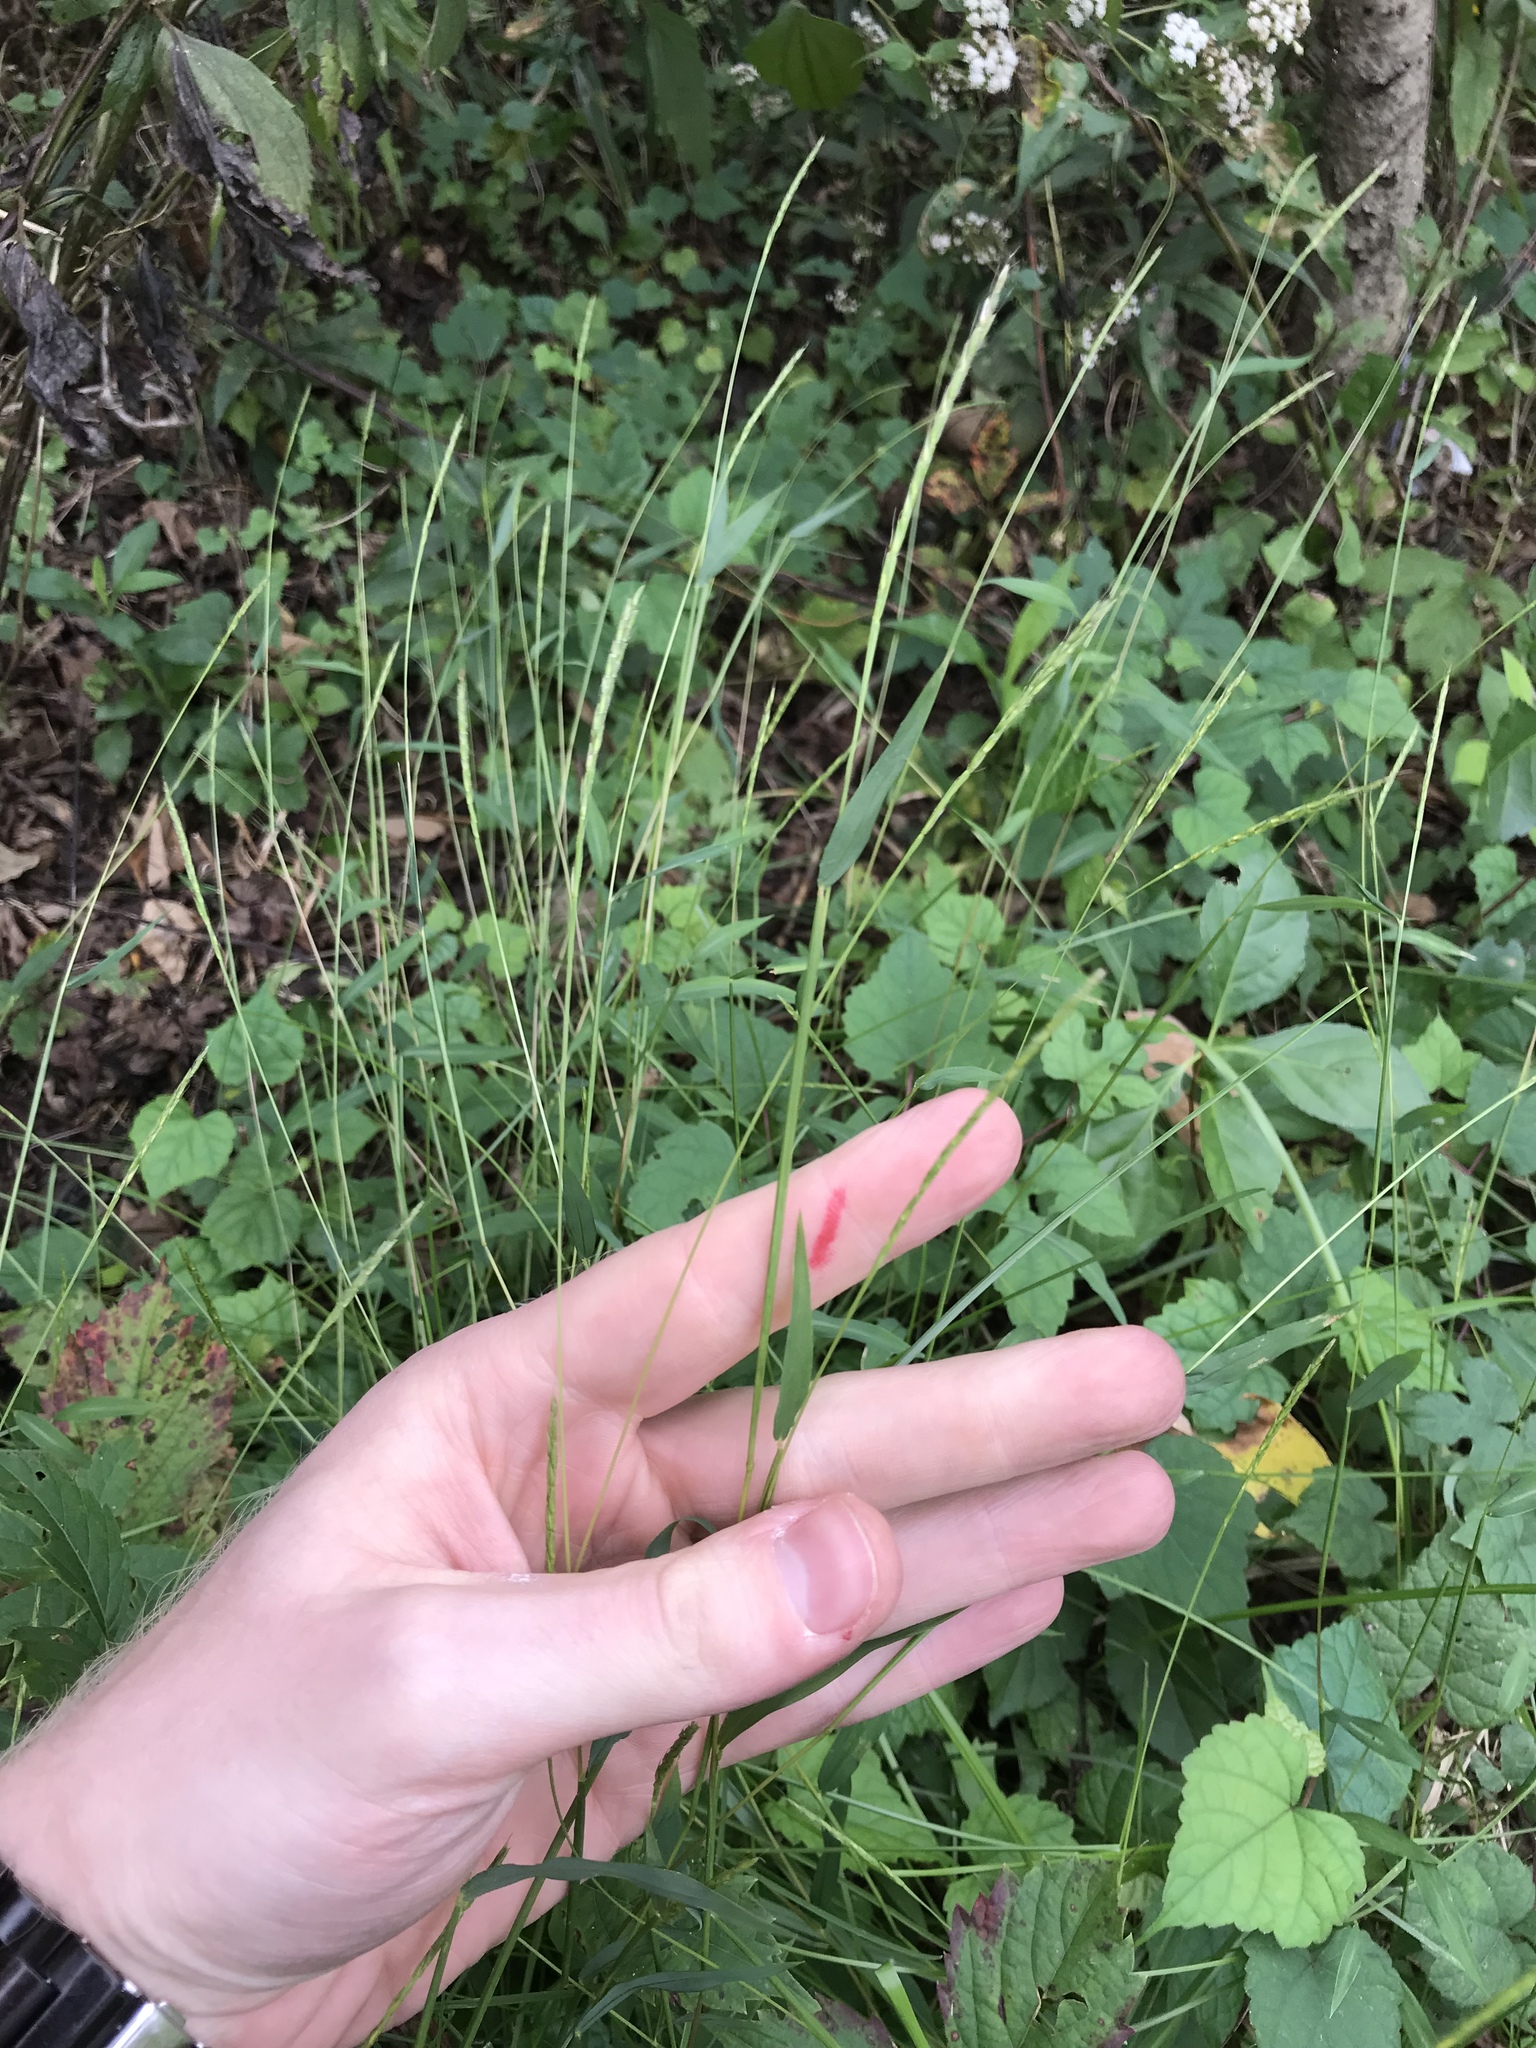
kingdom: Plantae
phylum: Tracheophyta
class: Liliopsida
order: Poales
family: Poaceae
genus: Microstegium
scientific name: Microstegium vimineum
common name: Japanese stiltgrass
